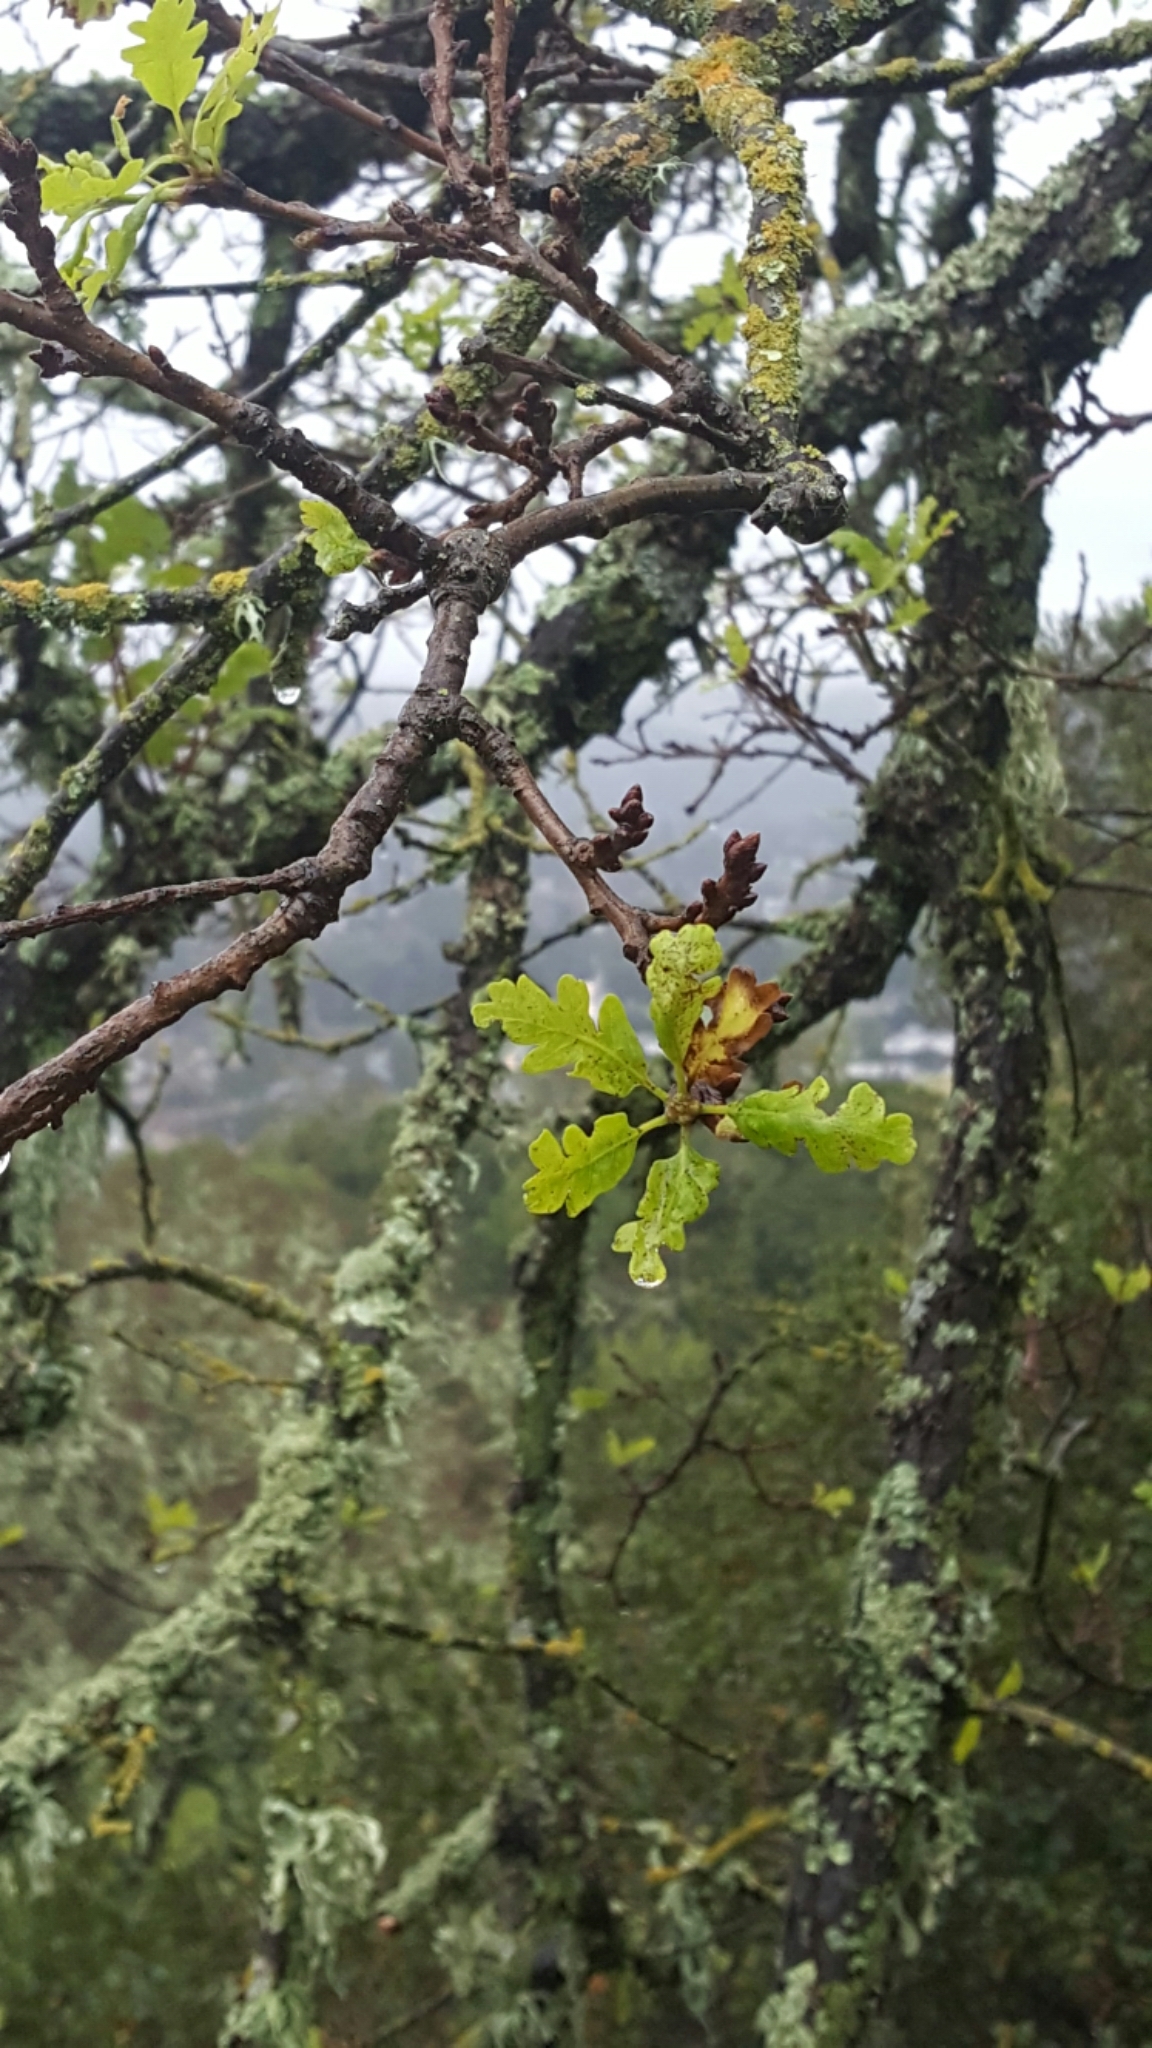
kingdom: Plantae
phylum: Tracheophyta
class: Magnoliopsida
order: Fagales
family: Fagaceae
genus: Quercus
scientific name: Quercus lobata
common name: Valley oak
